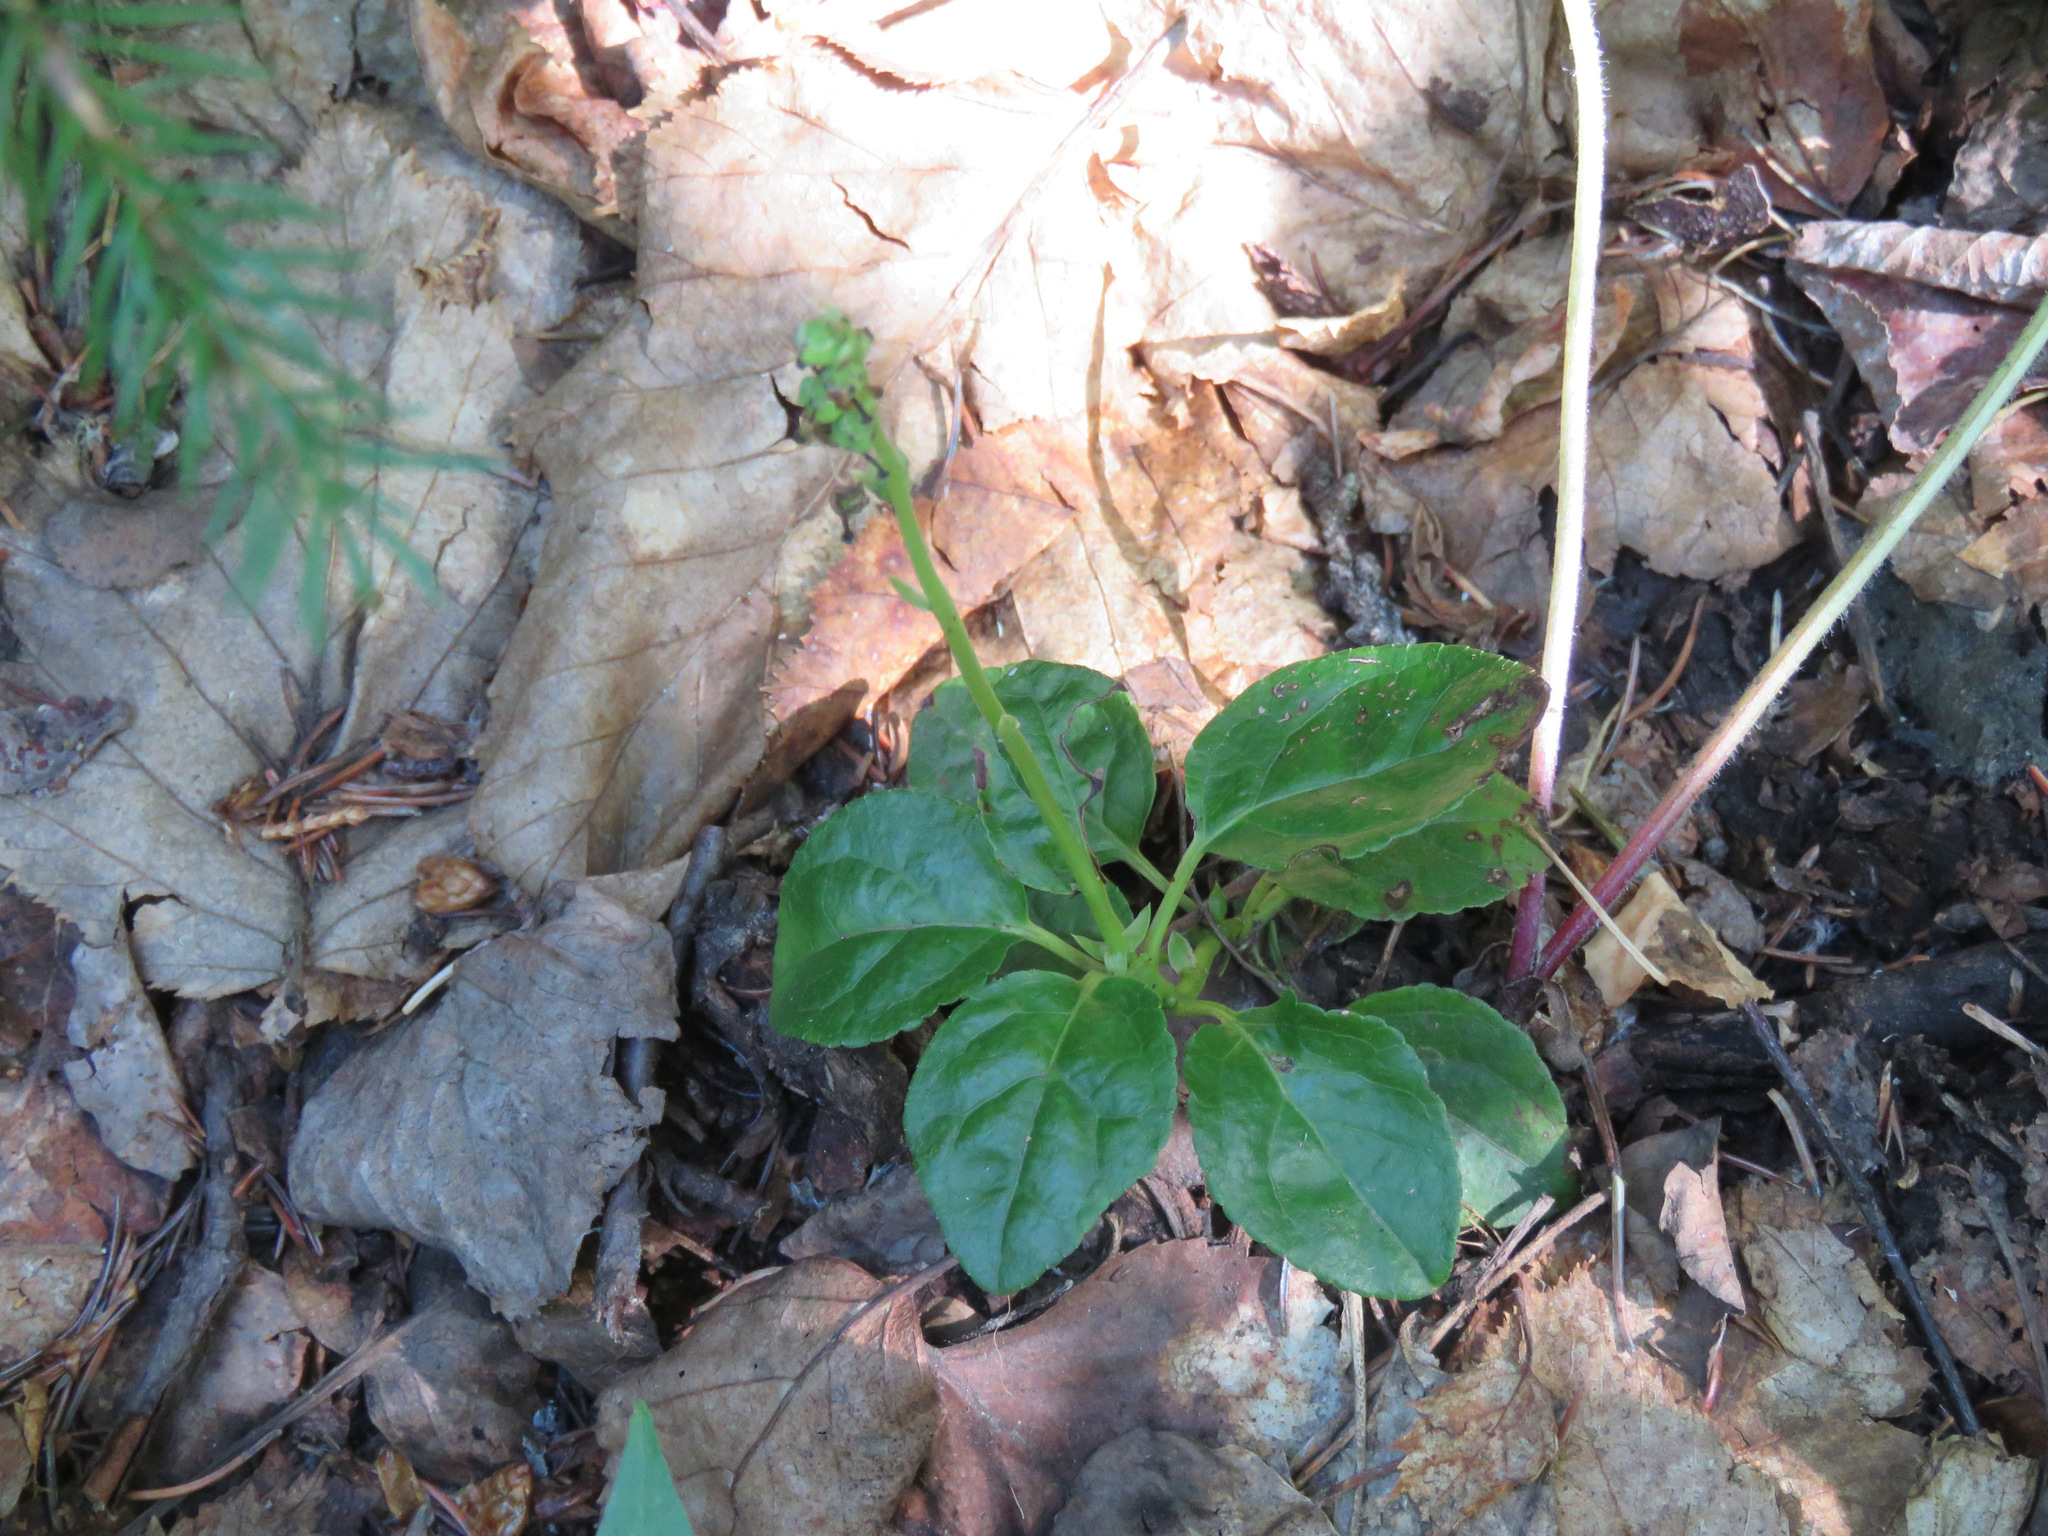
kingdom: Plantae
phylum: Tracheophyta
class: Magnoliopsida
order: Ericales
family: Ericaceae
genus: Orthilia
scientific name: Orthilia secunda
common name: One-sided orthilia
